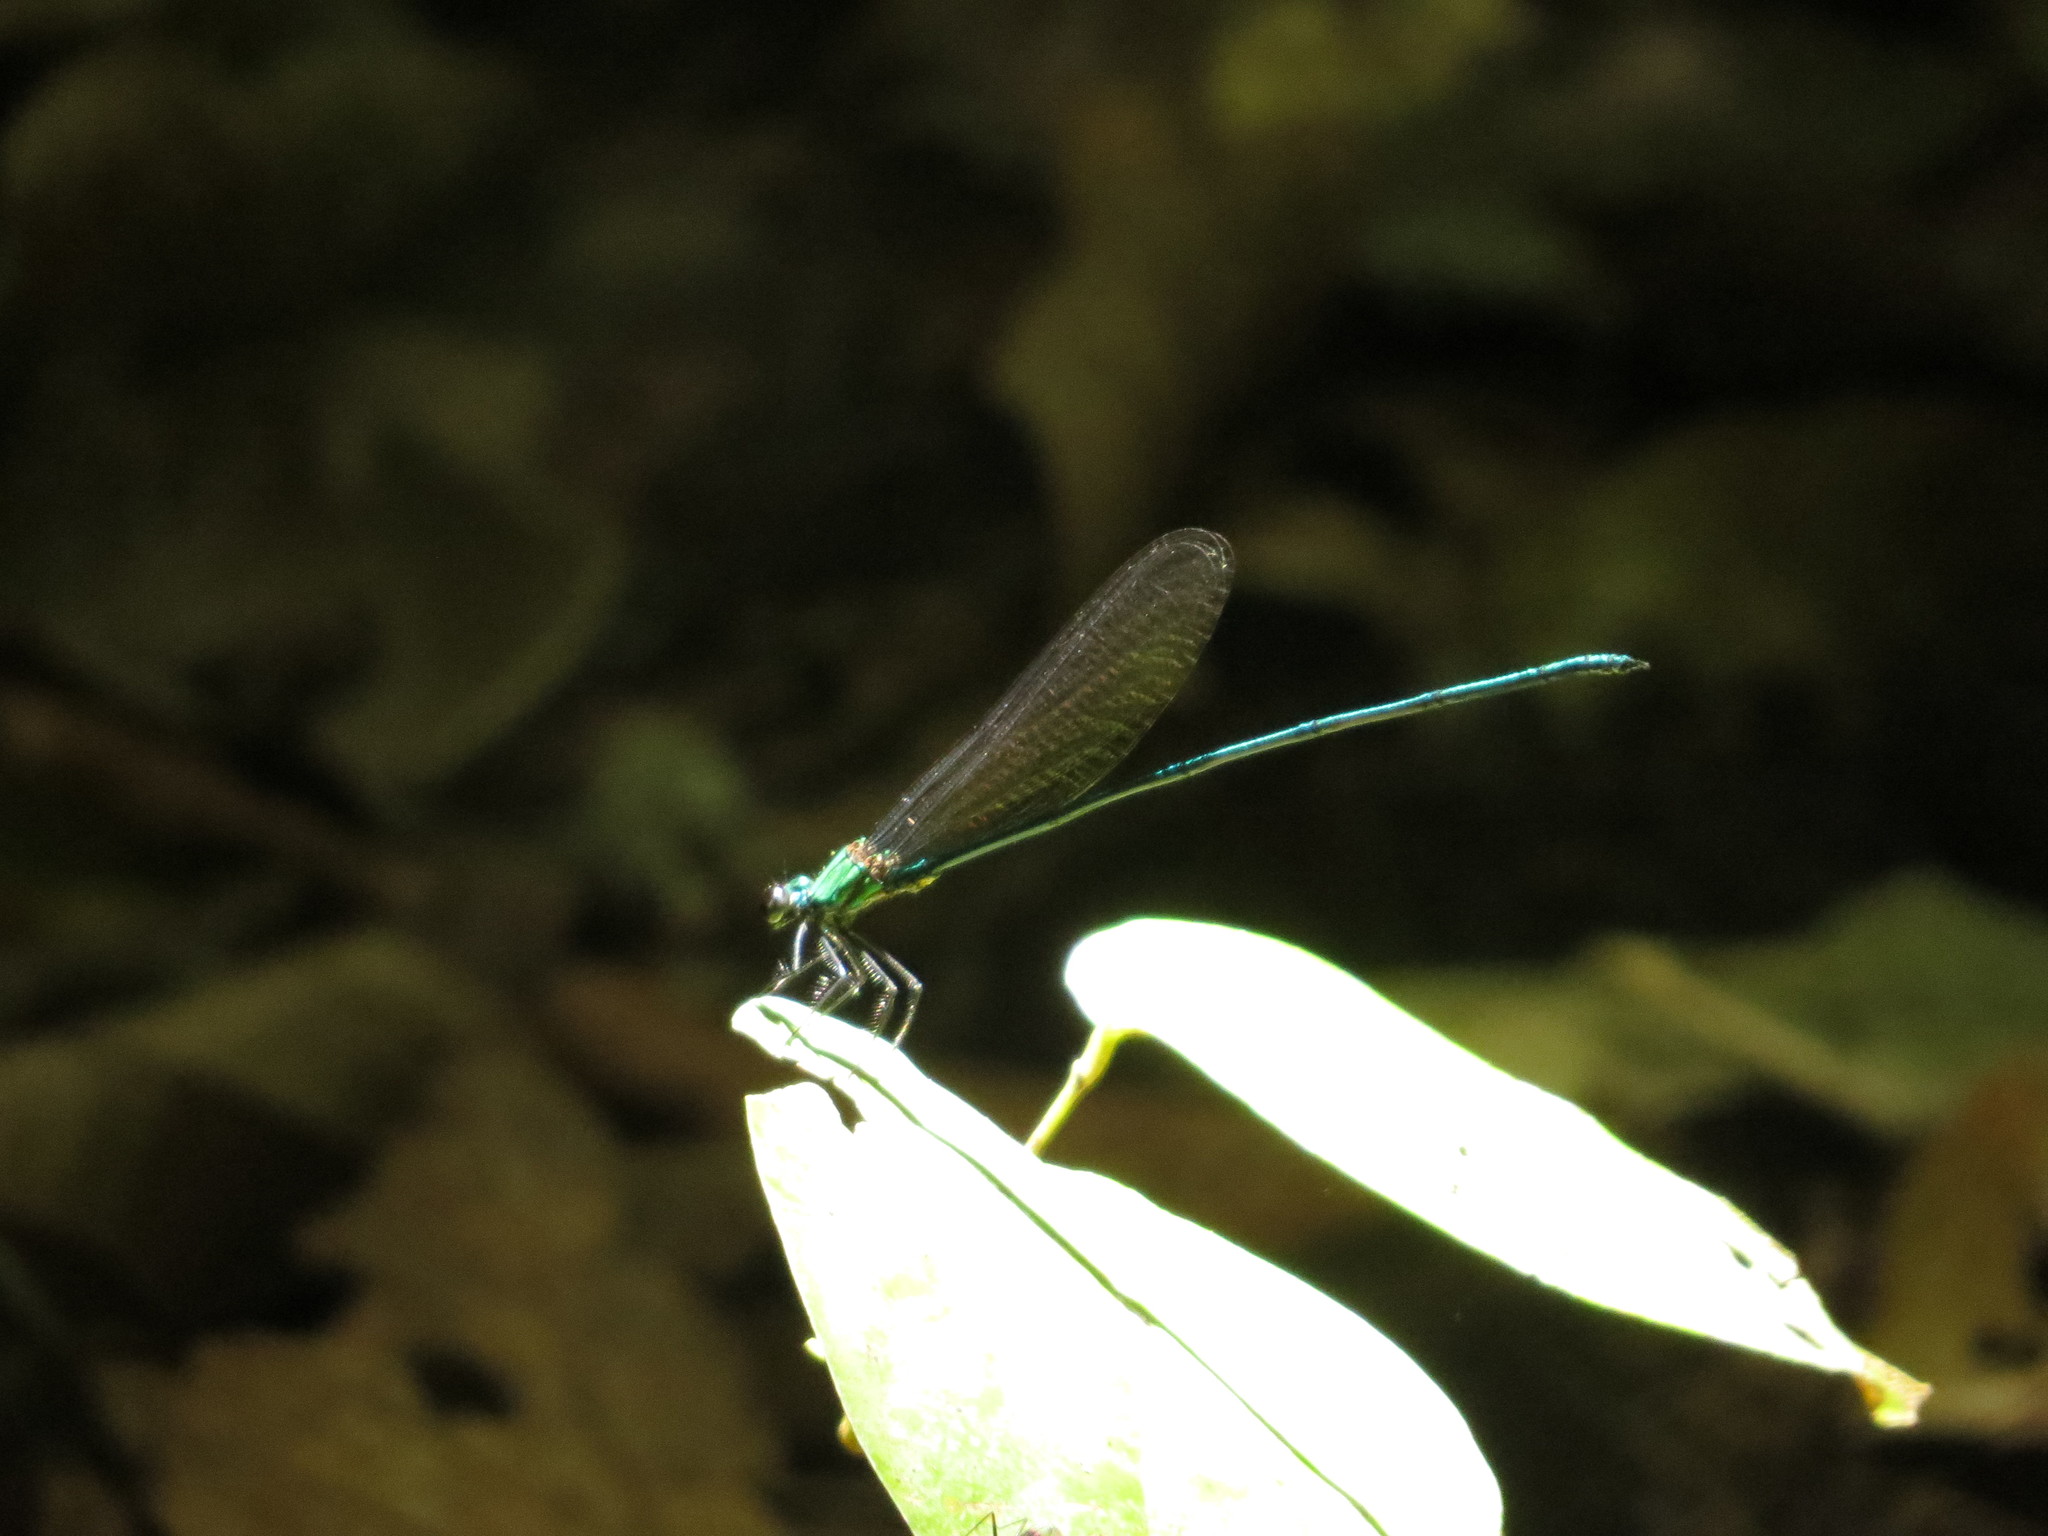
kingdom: Animalia
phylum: Arthropoda
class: Insecta
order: Odonata
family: Calopterygidae
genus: Vestalis
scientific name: Vestalis beryllae
